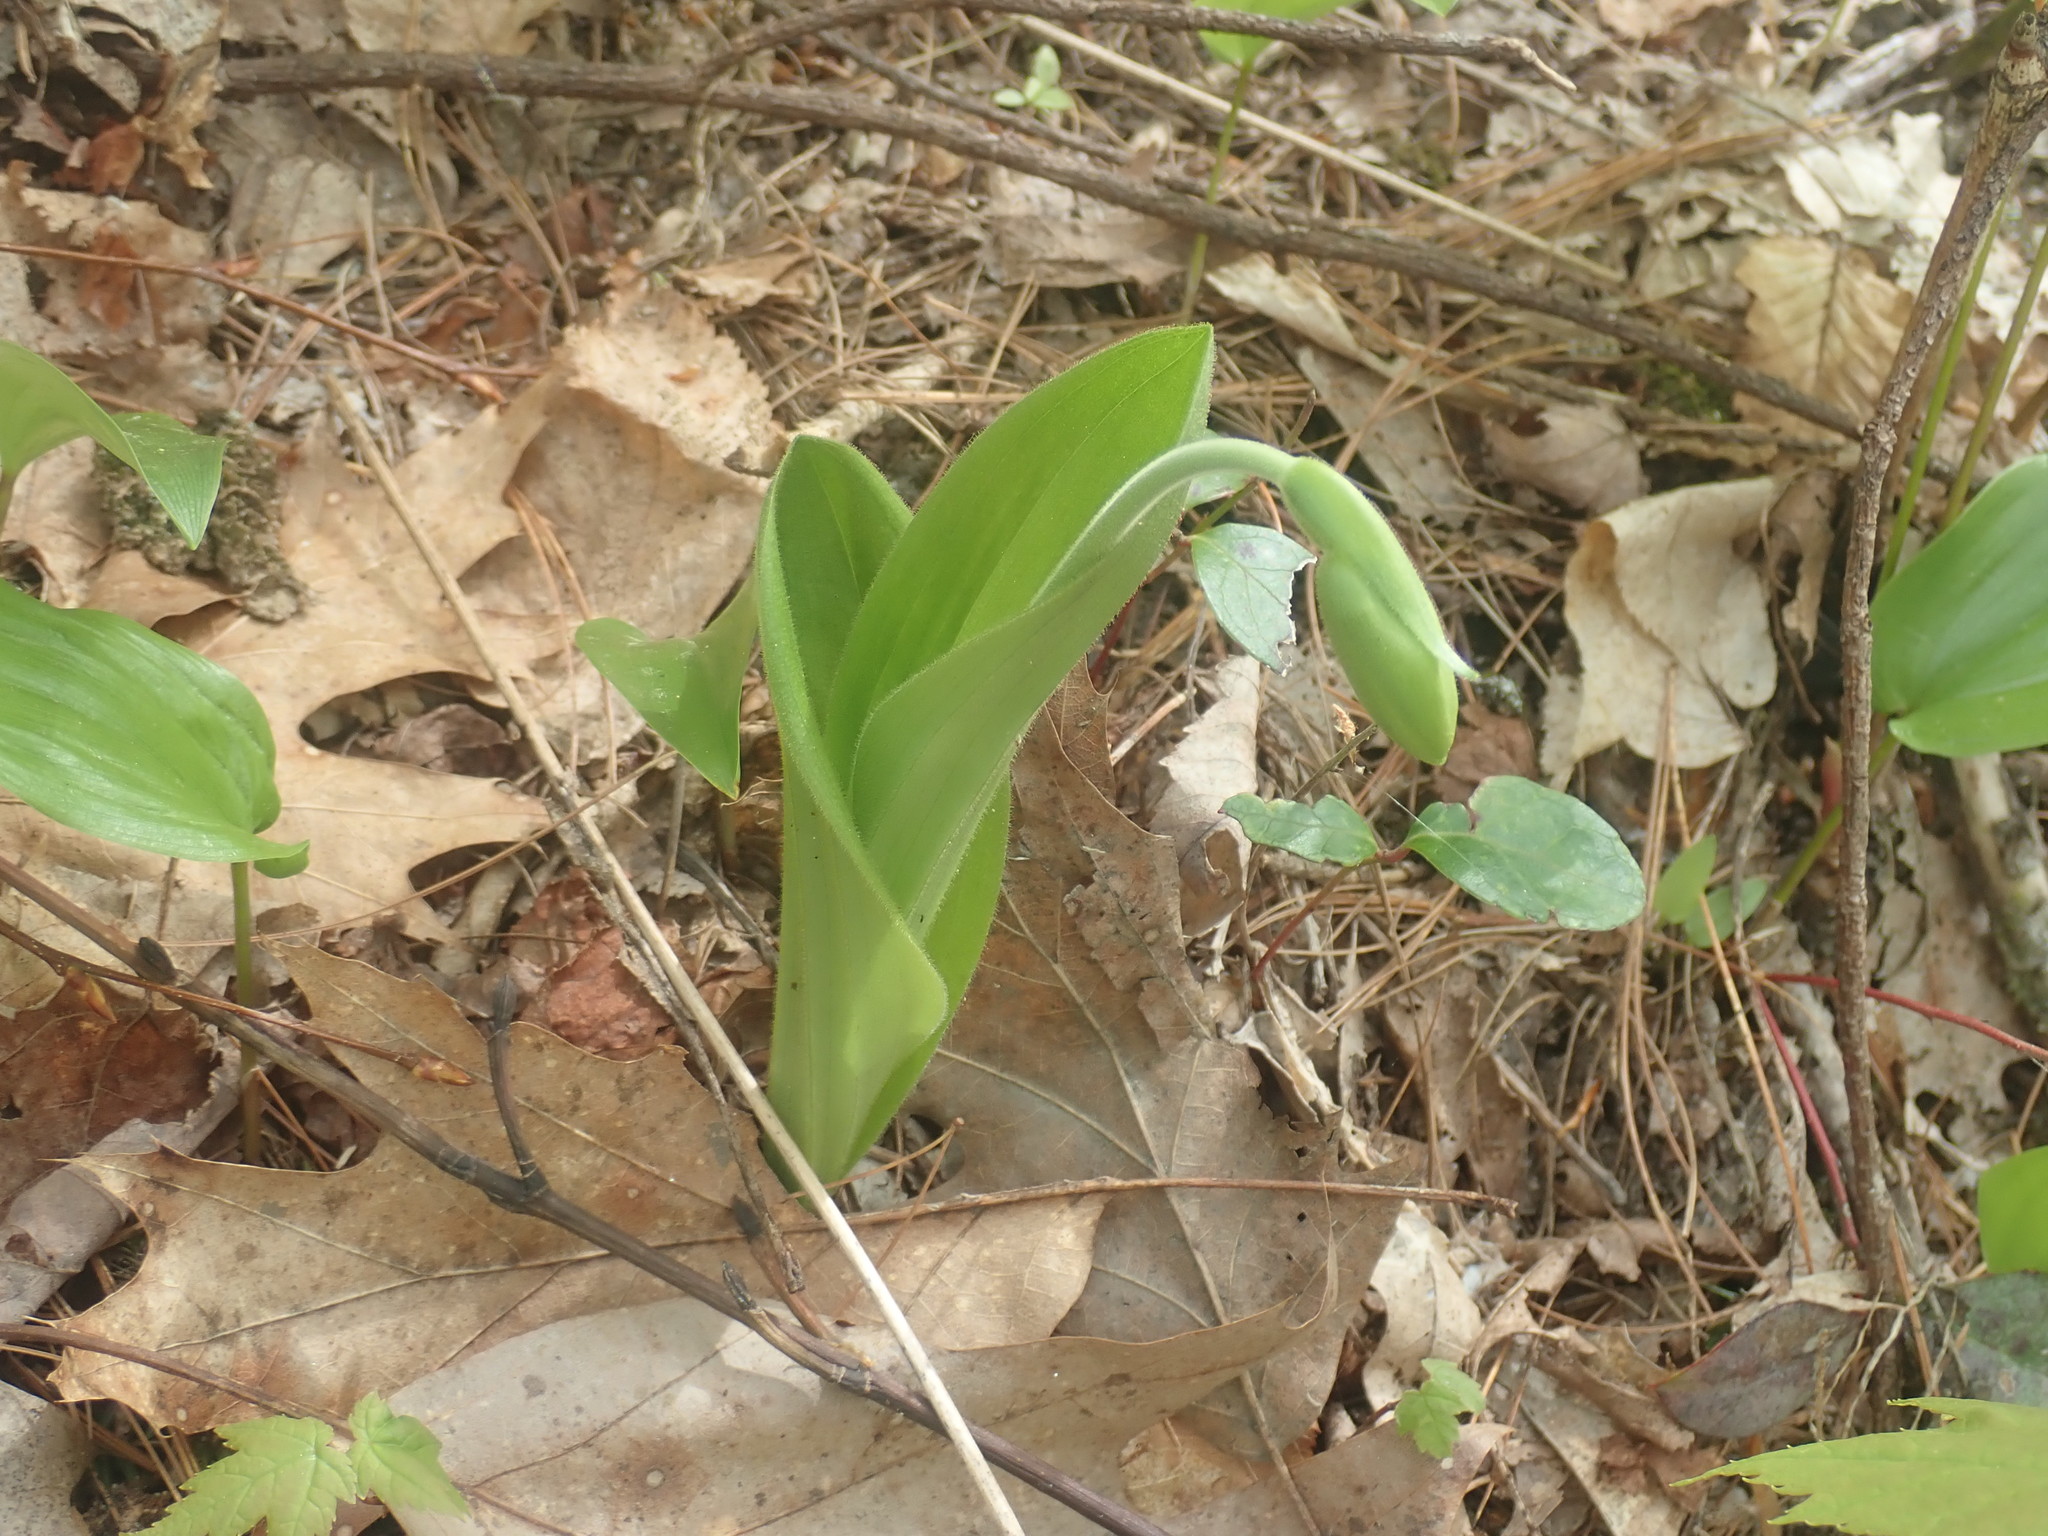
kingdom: Plantae
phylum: Tracheophyta
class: Liliopsida
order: Asparagales
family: Orchidaceae
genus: Cypripedium
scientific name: Cypripedium acaule
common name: Pink lady's-slipper
